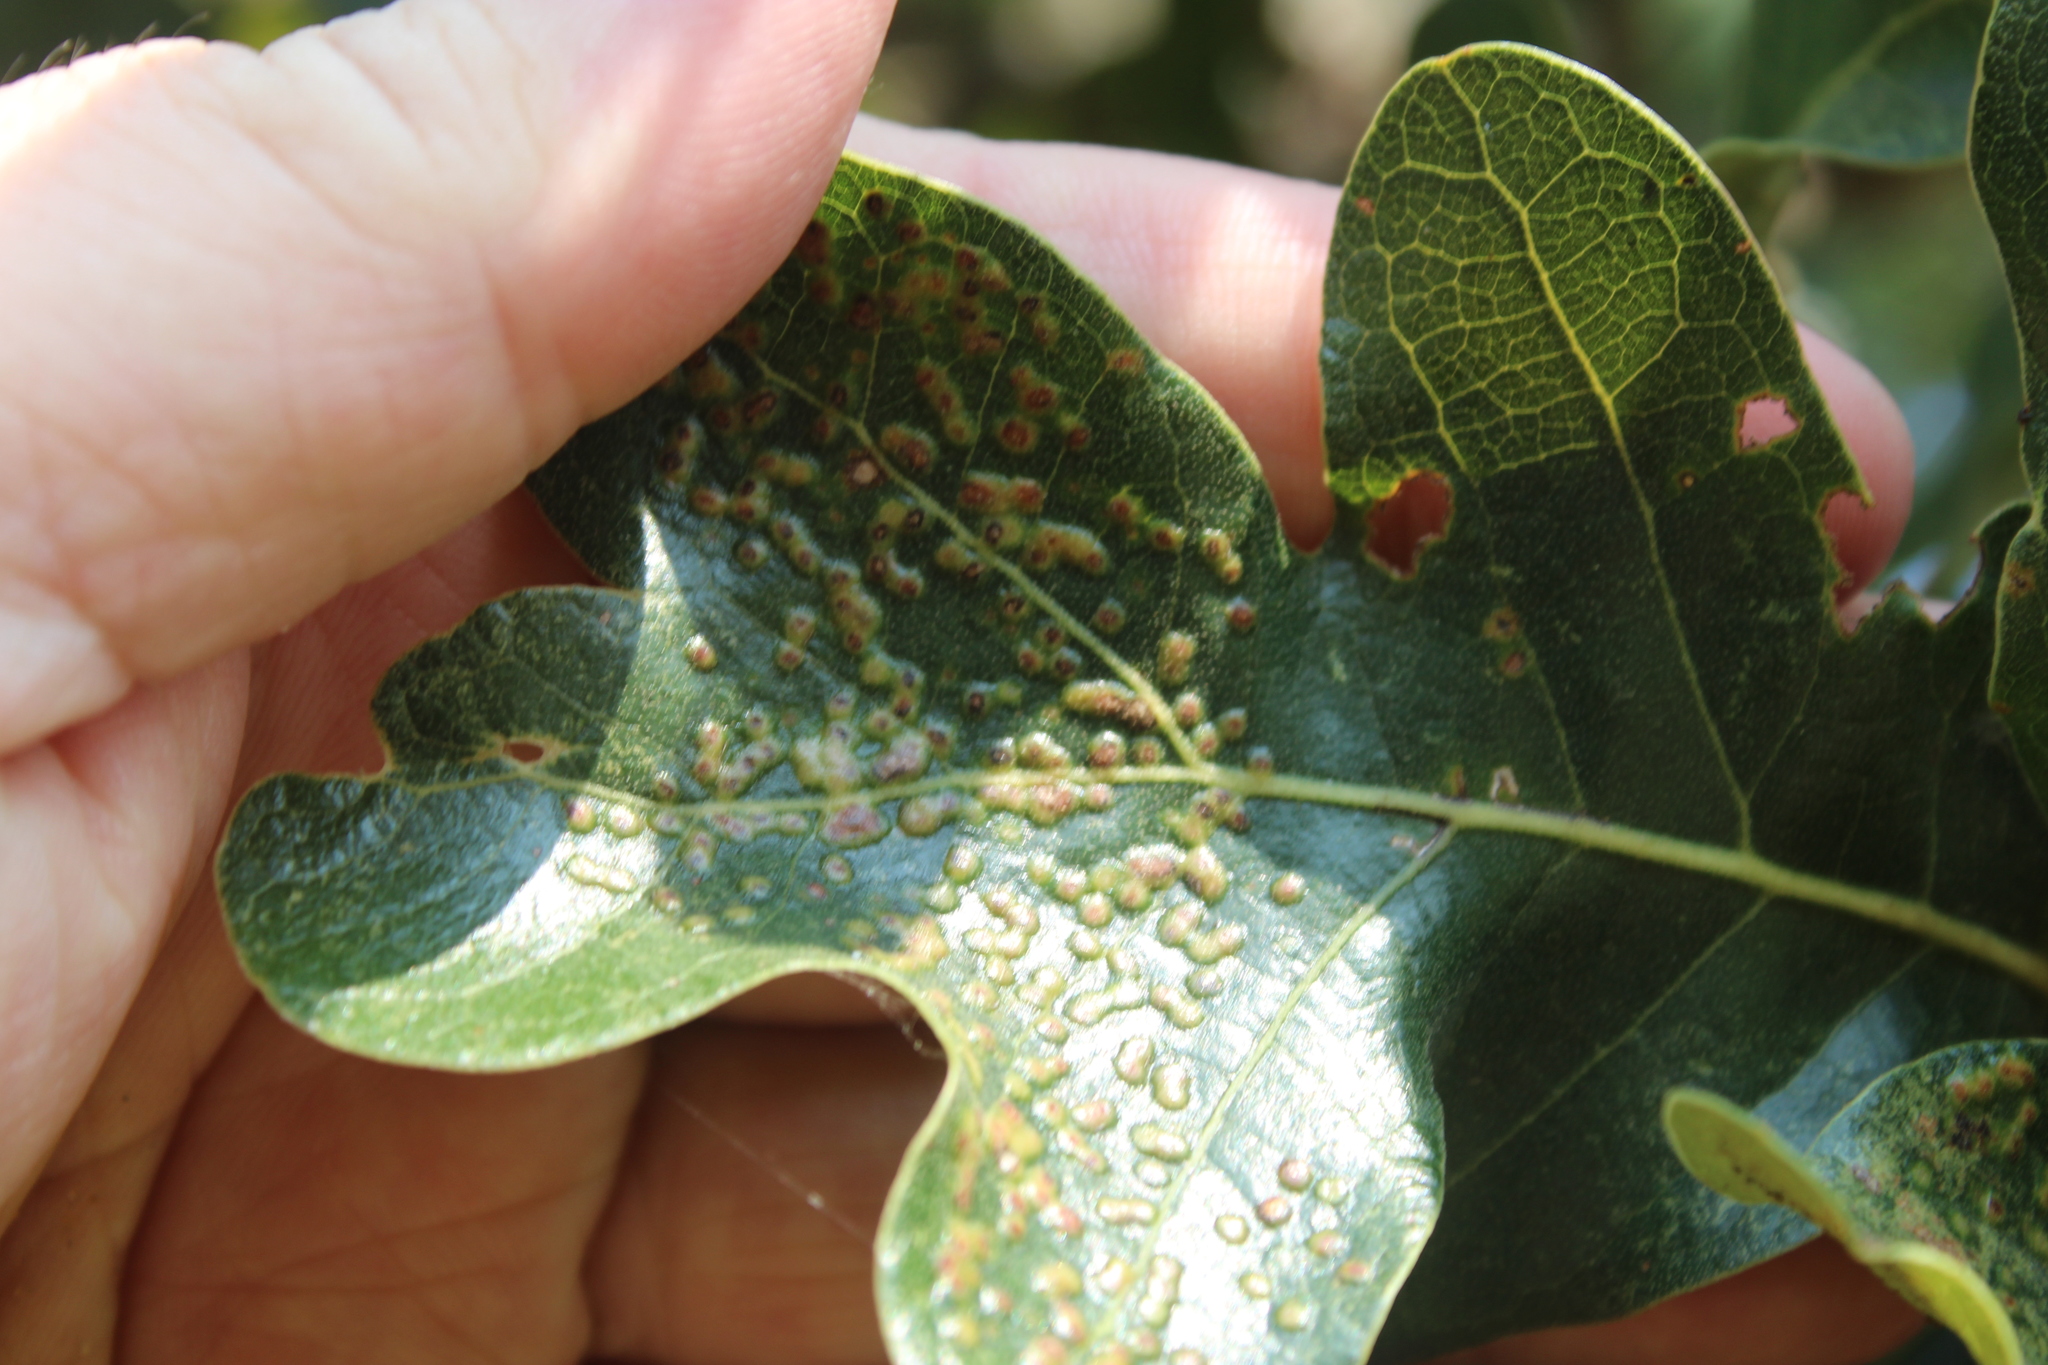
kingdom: Animalia
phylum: Arthropoda
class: Insecta
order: Hymenoptera
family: Cynipidae
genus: Neuroterus
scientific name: Neuroterus niger
